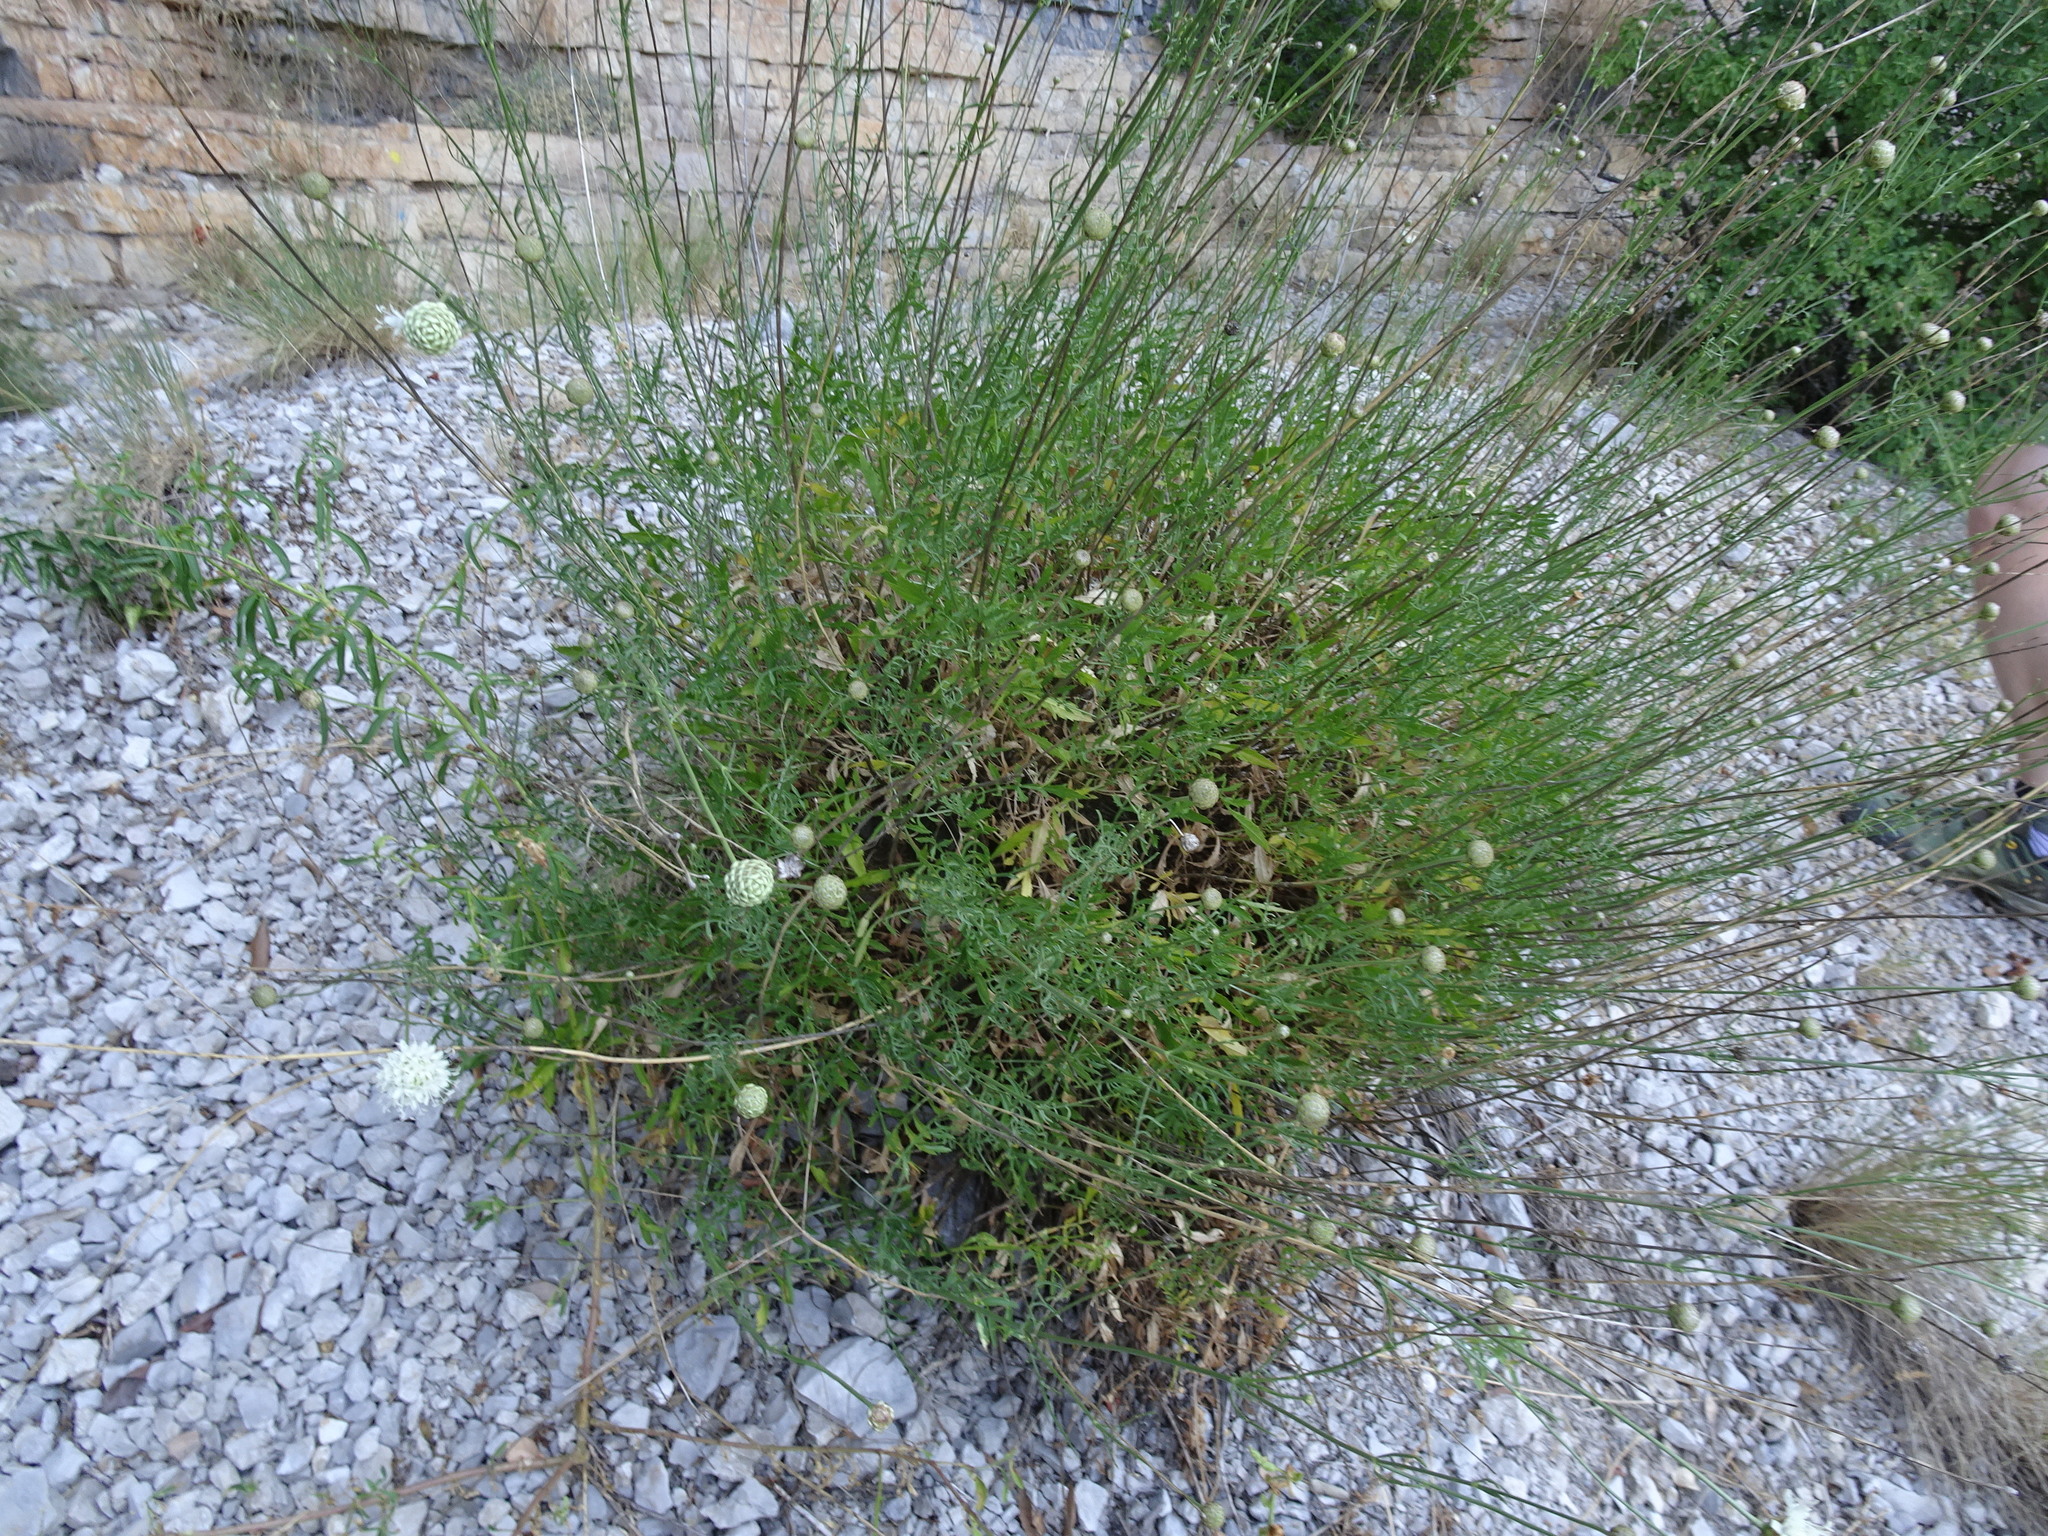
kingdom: Plantae
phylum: Tracheophyta
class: Magnoliopsida
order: Dipsacales
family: Caprifoliaceae
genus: Cephalaria
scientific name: Cephalaria leucantha
